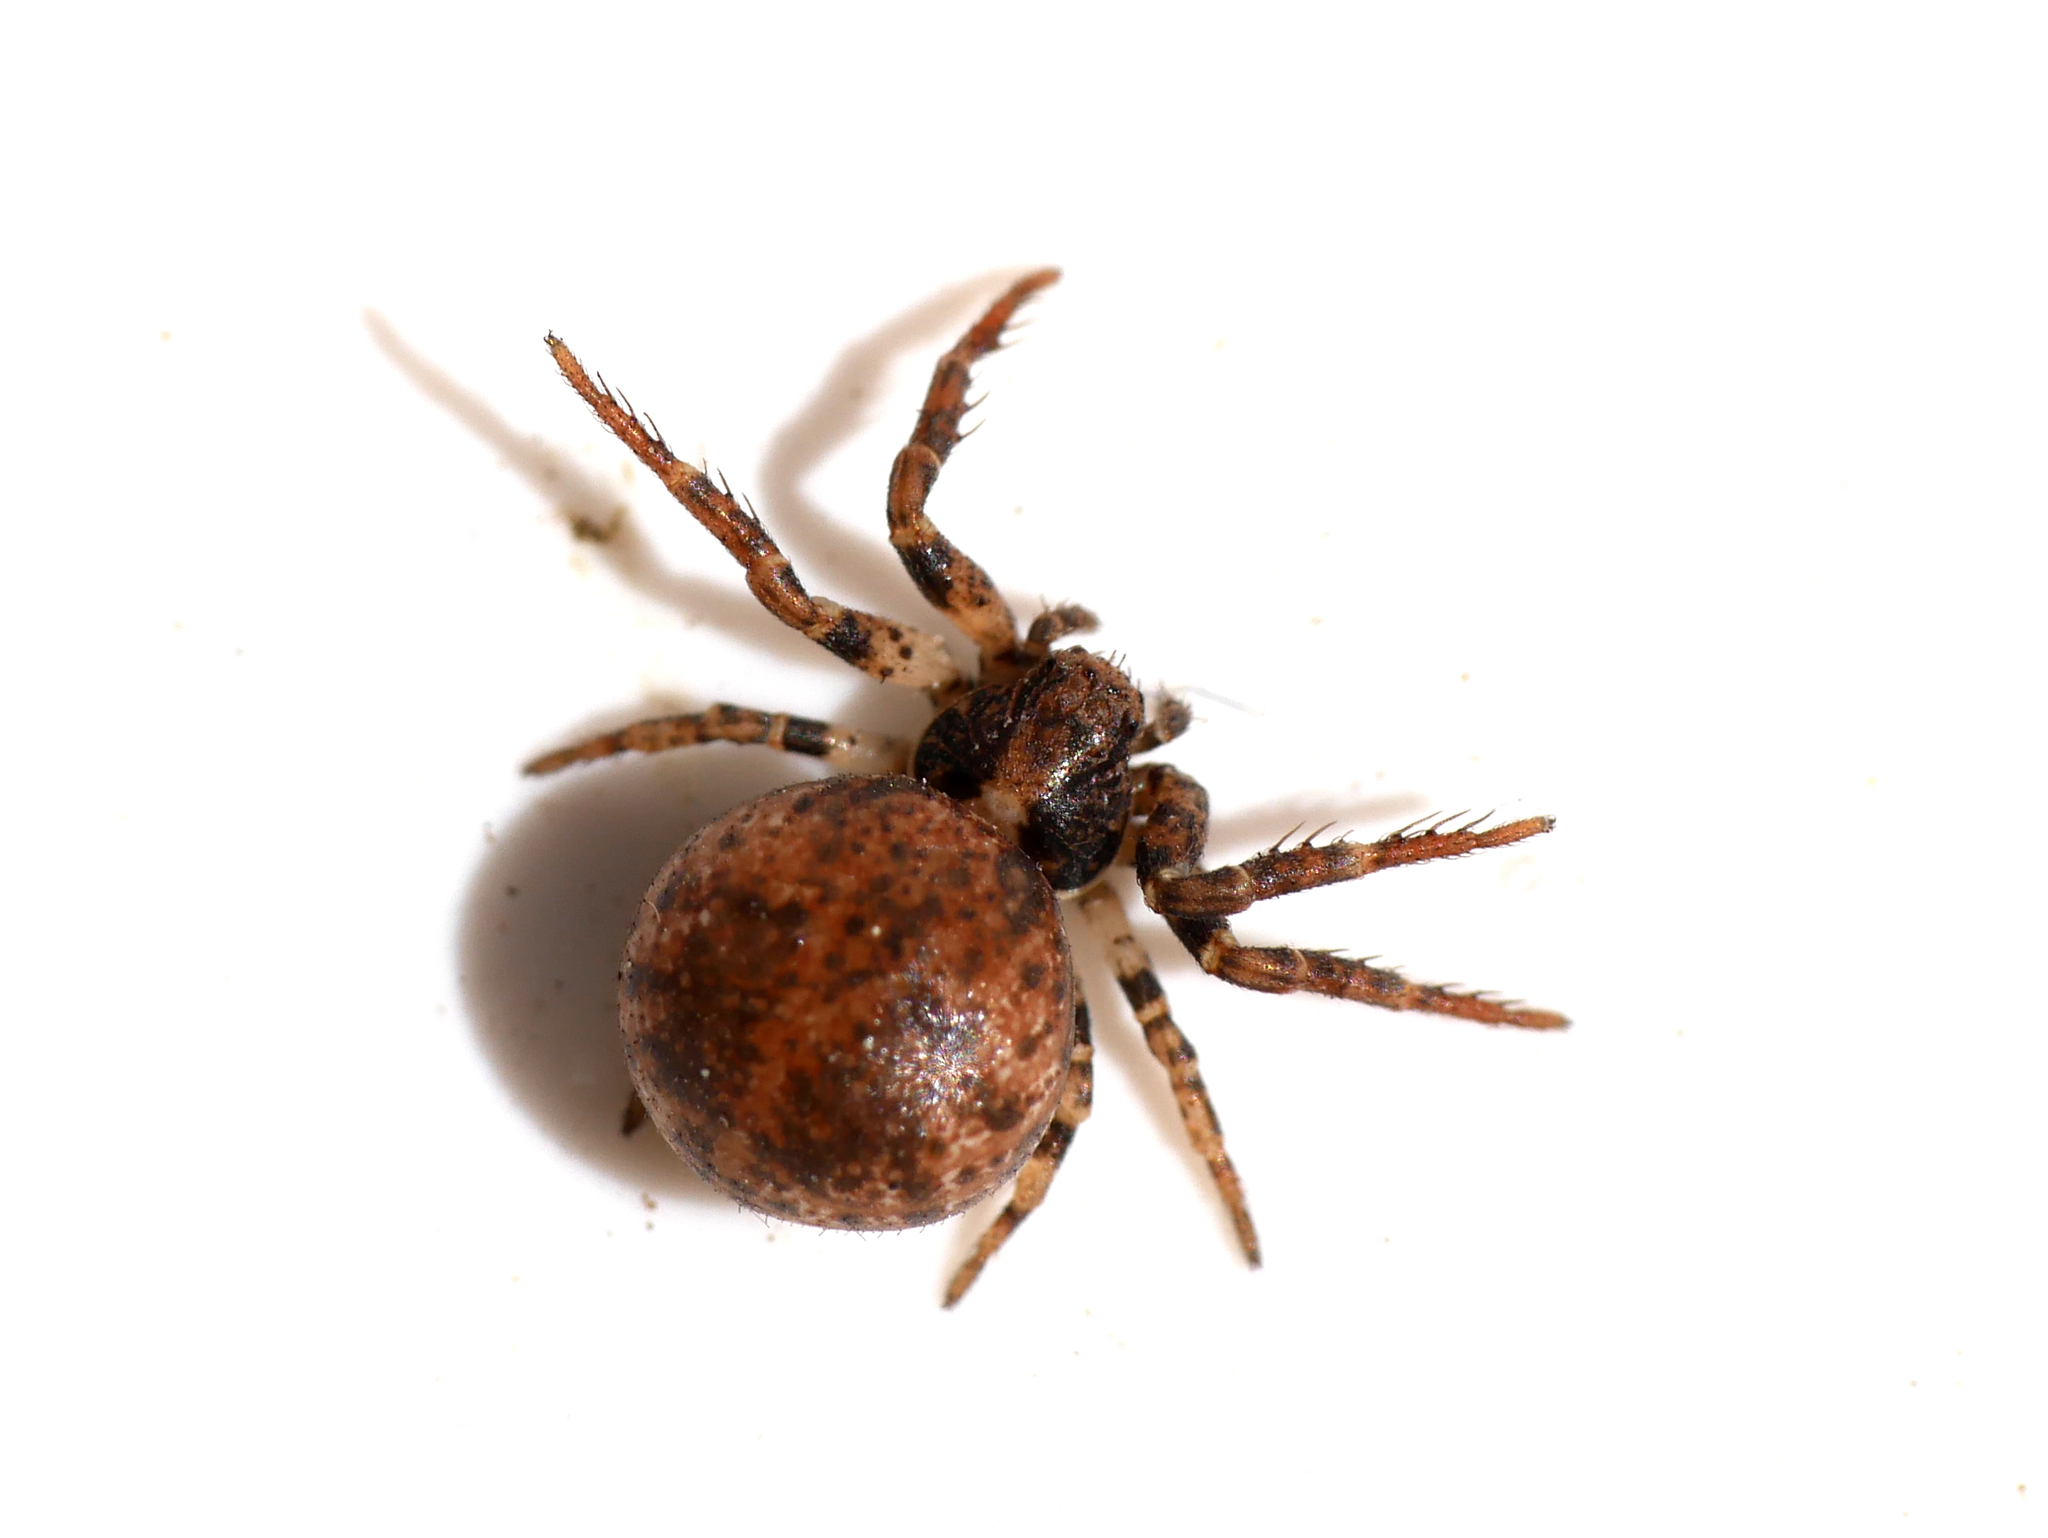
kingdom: Animalia
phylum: Arthropoda
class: Arachnida
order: Araneae
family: Thomisidae
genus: Ozyptila
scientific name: Ozyptila praticola
